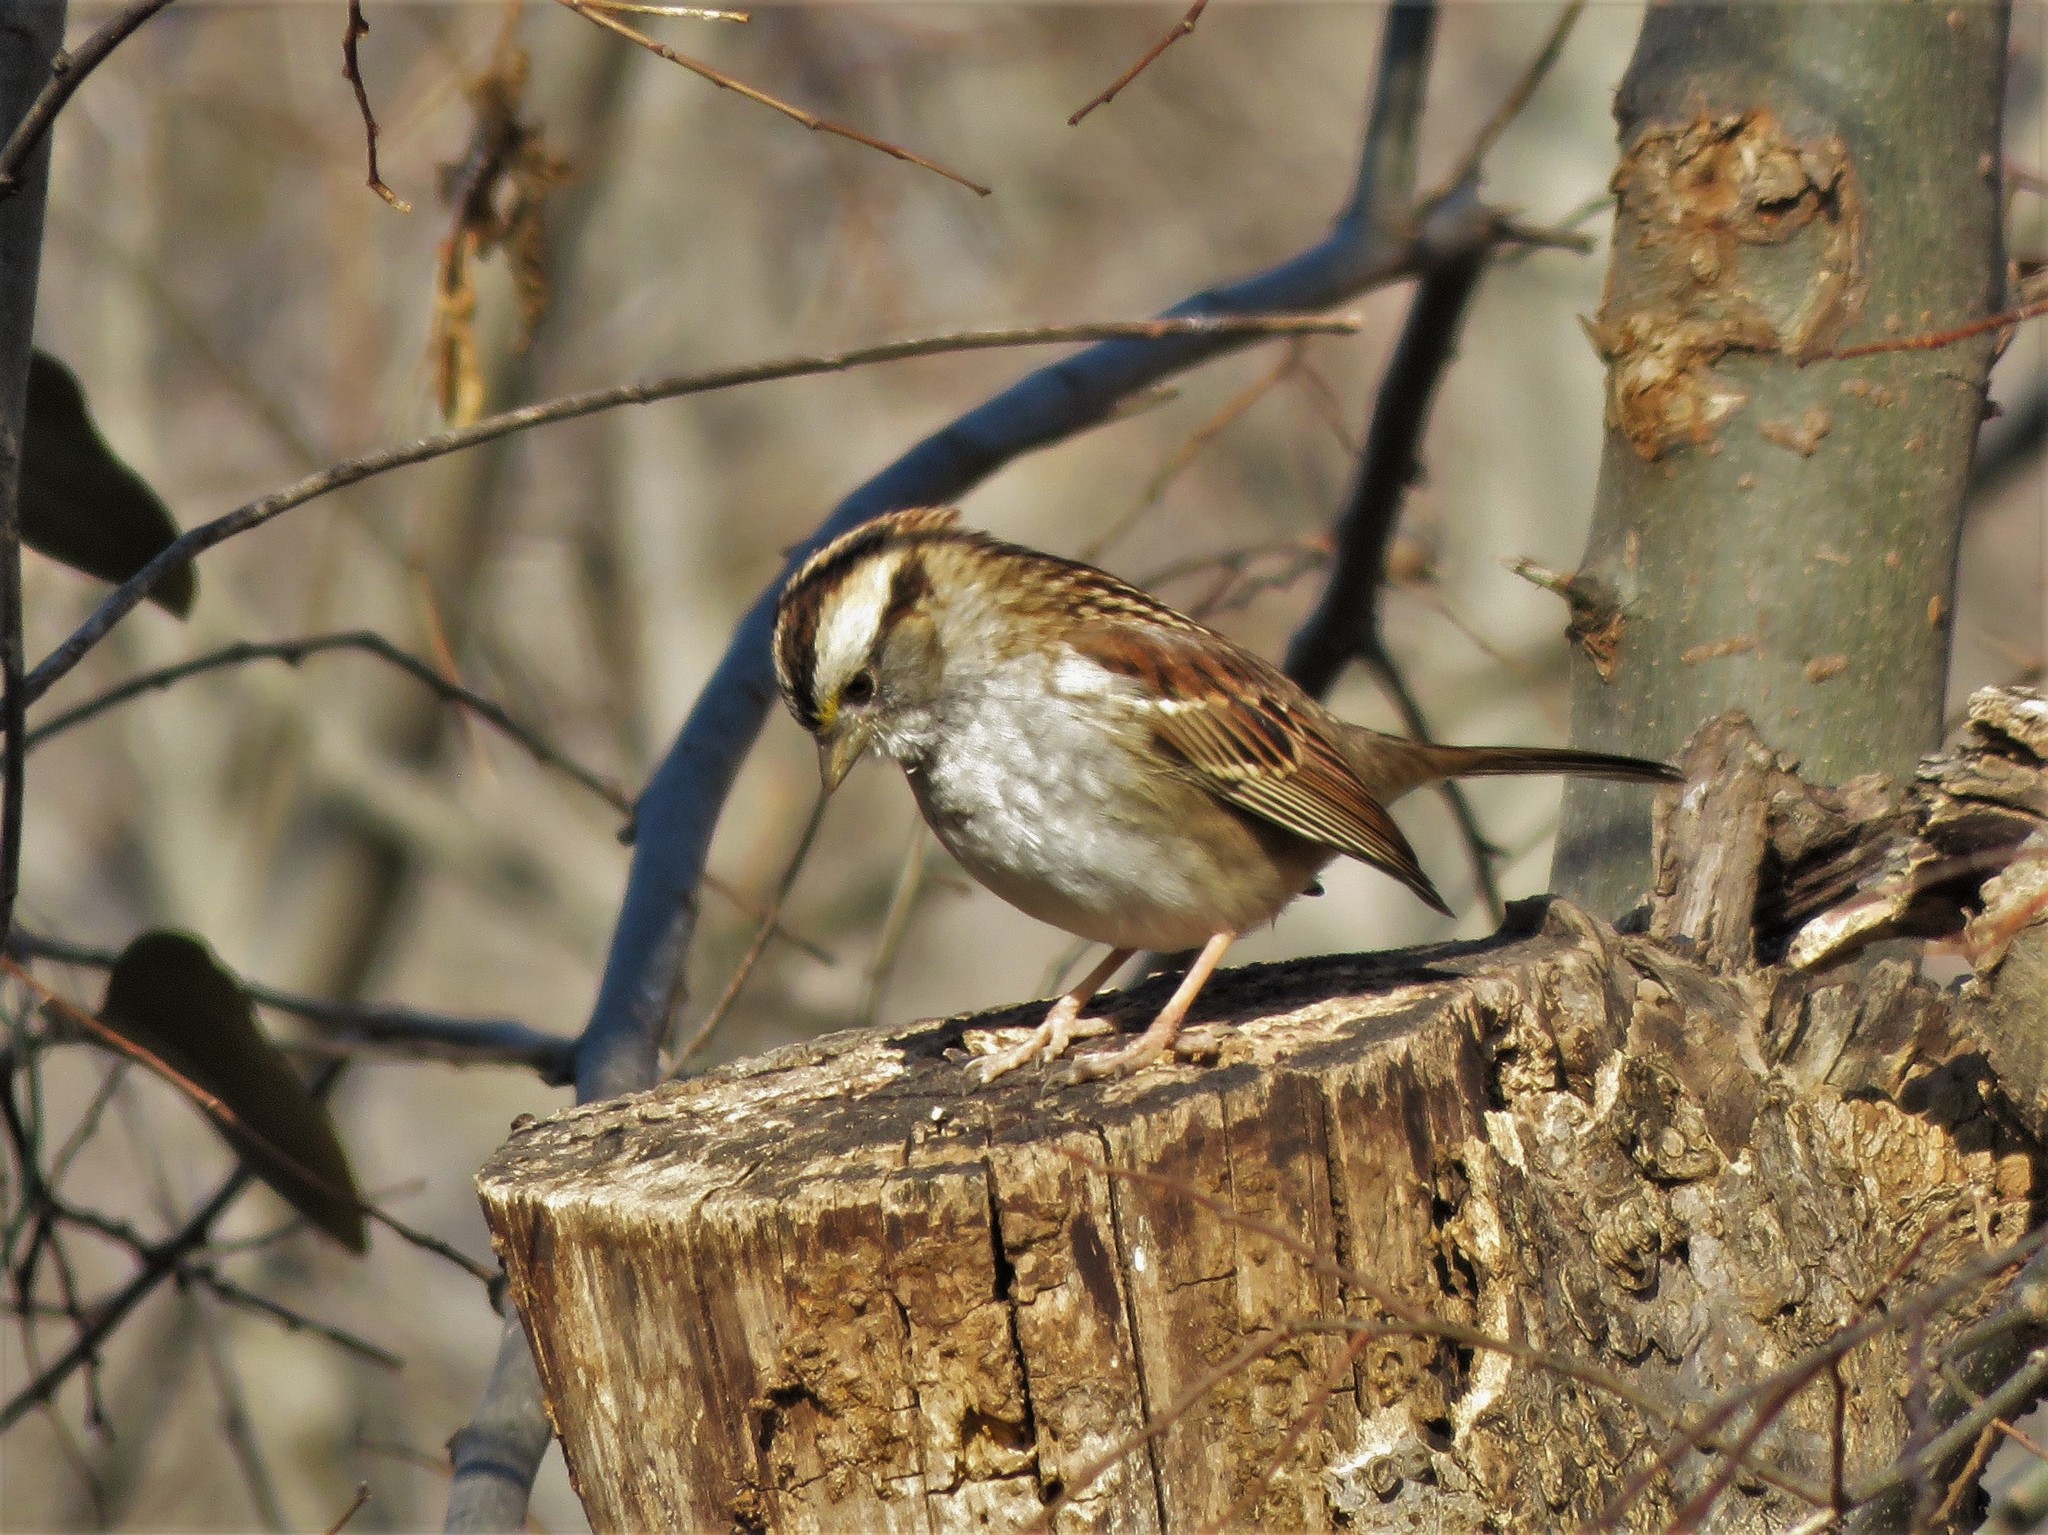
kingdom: Animalia
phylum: Chordata
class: Aves
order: Passeriformes
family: Passerellidae
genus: Zonotrichia
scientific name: Zonotrichia albicollis
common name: White-throated sparrow
